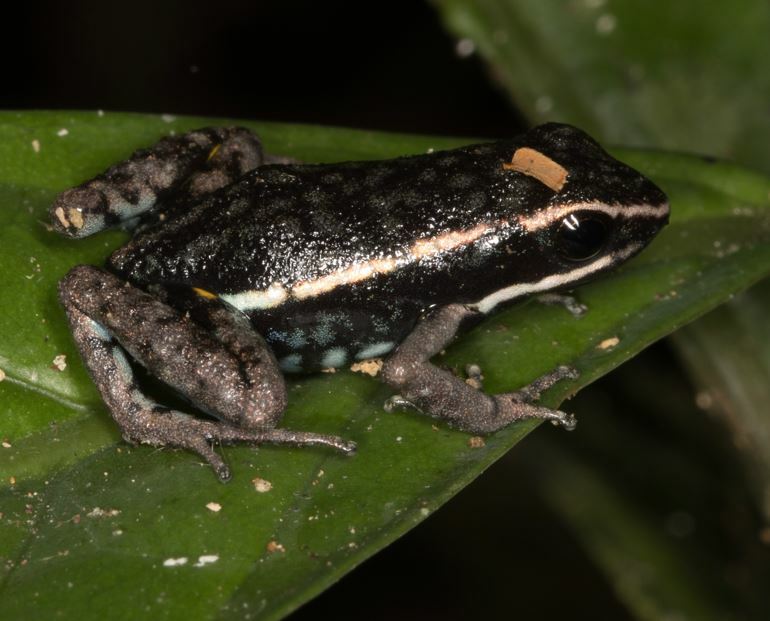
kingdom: Animalia
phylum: Chordata
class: Amphibia
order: Anura
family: Dendrobatidae
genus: Ameerega
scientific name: Ameerega hahneli
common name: Yurimaguas pioson frog
